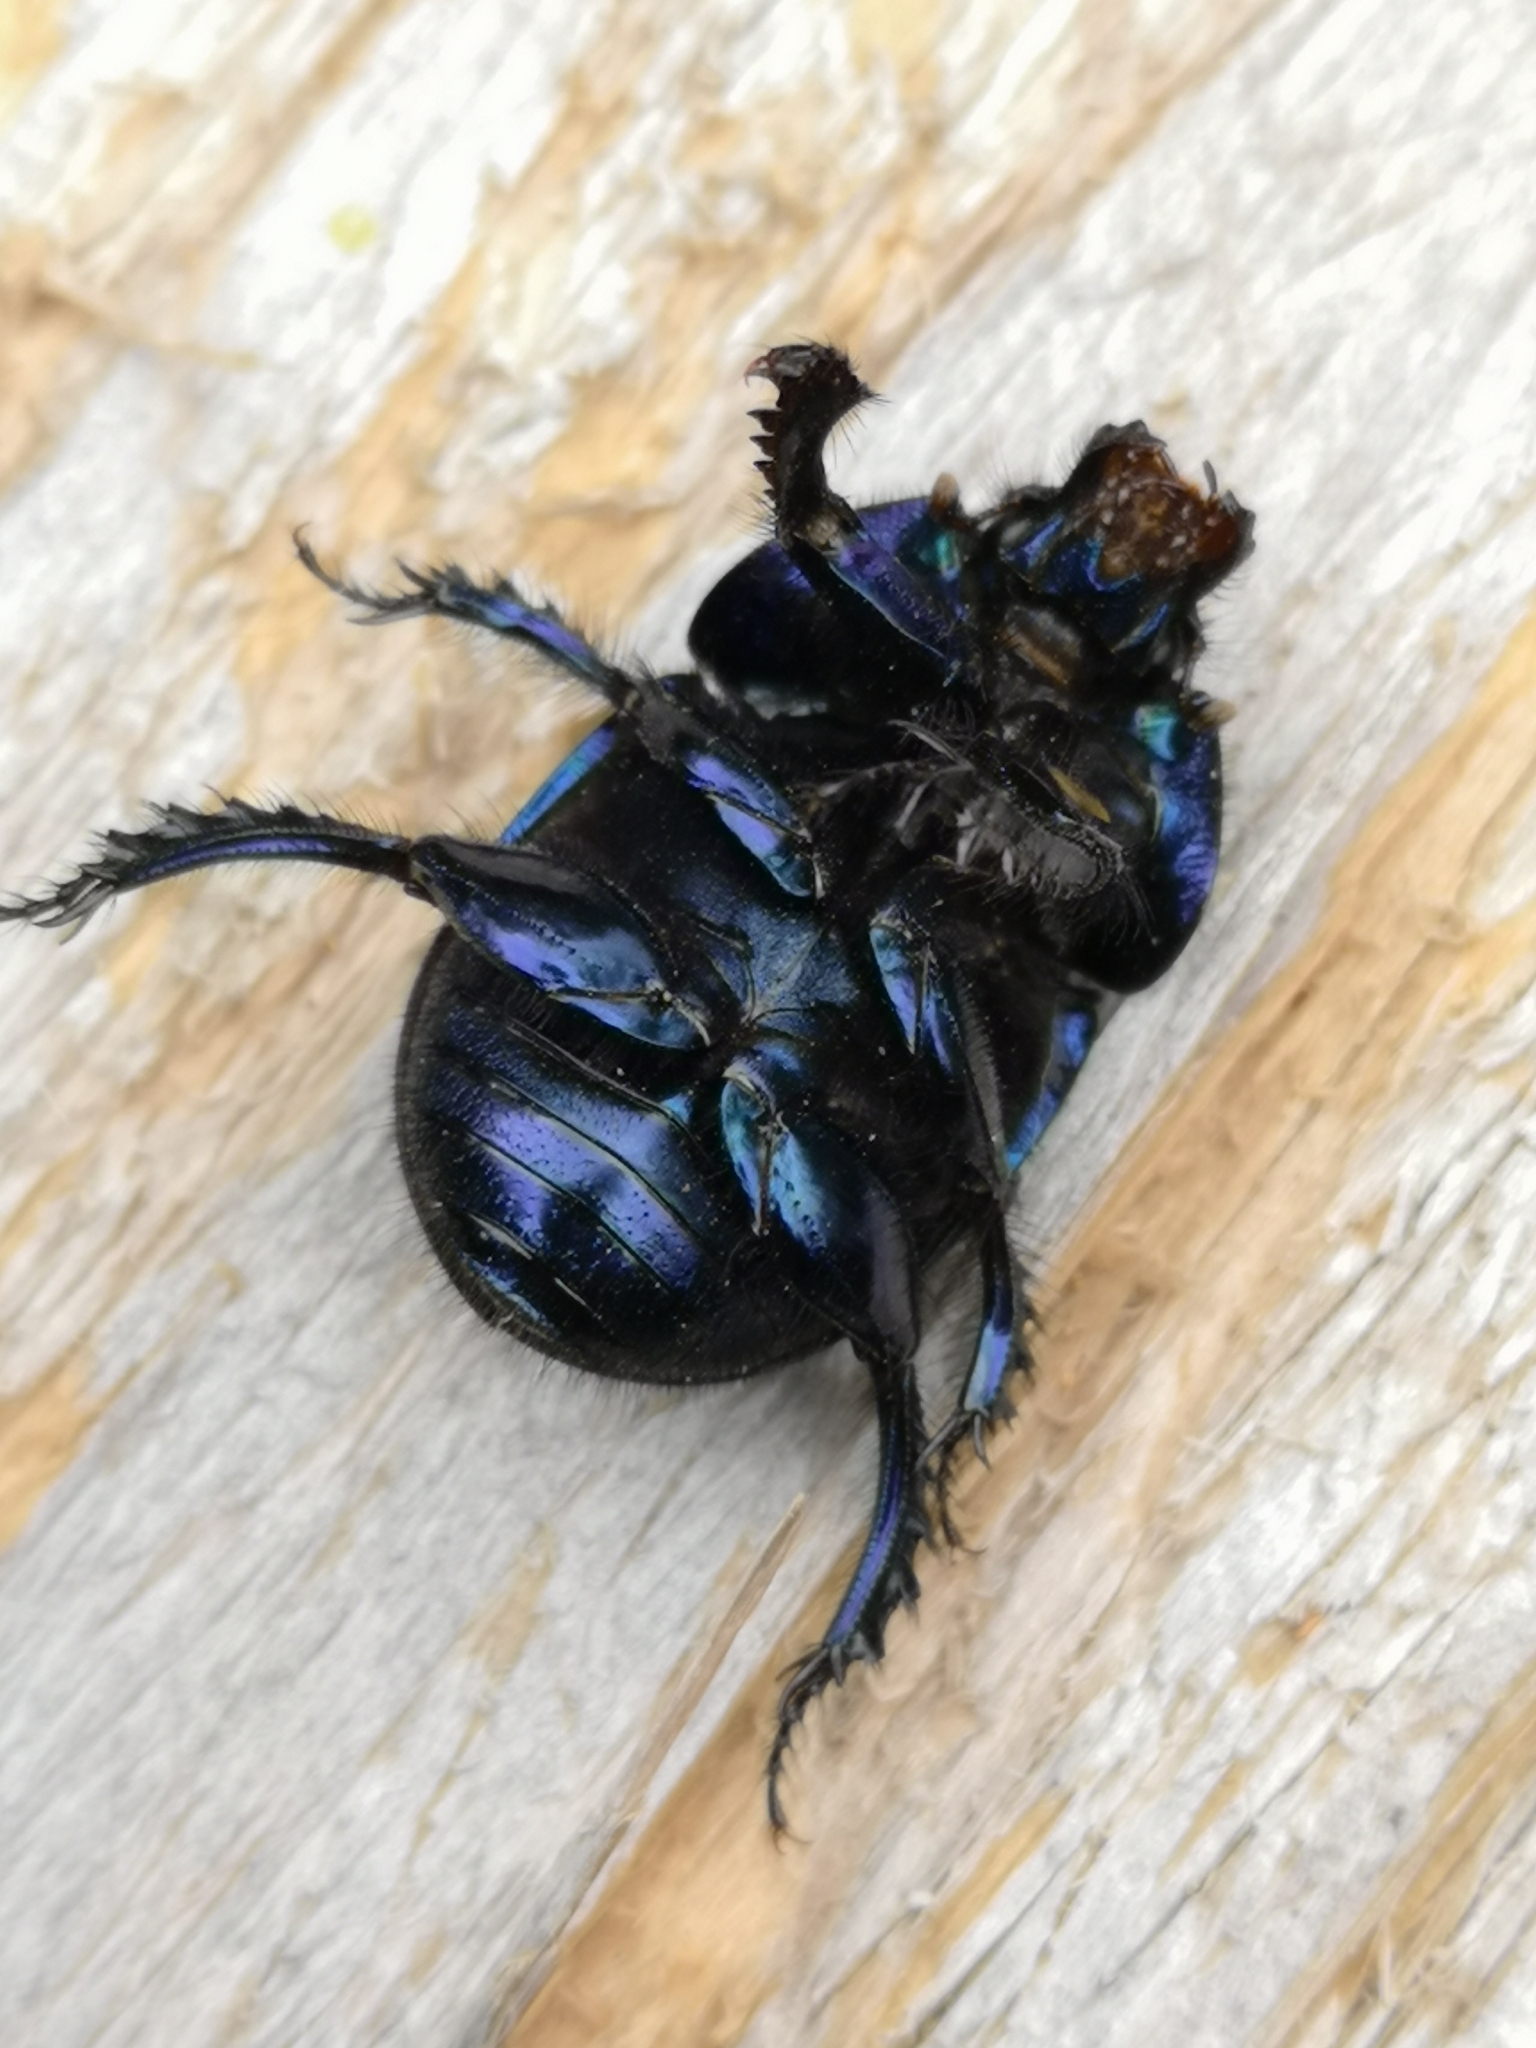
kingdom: Animalia
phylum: Arthropoda
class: Insecta
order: Coleoptera
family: Geotrupidae
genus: Anoplotrupes
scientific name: Anoplotrupes stercorosus
